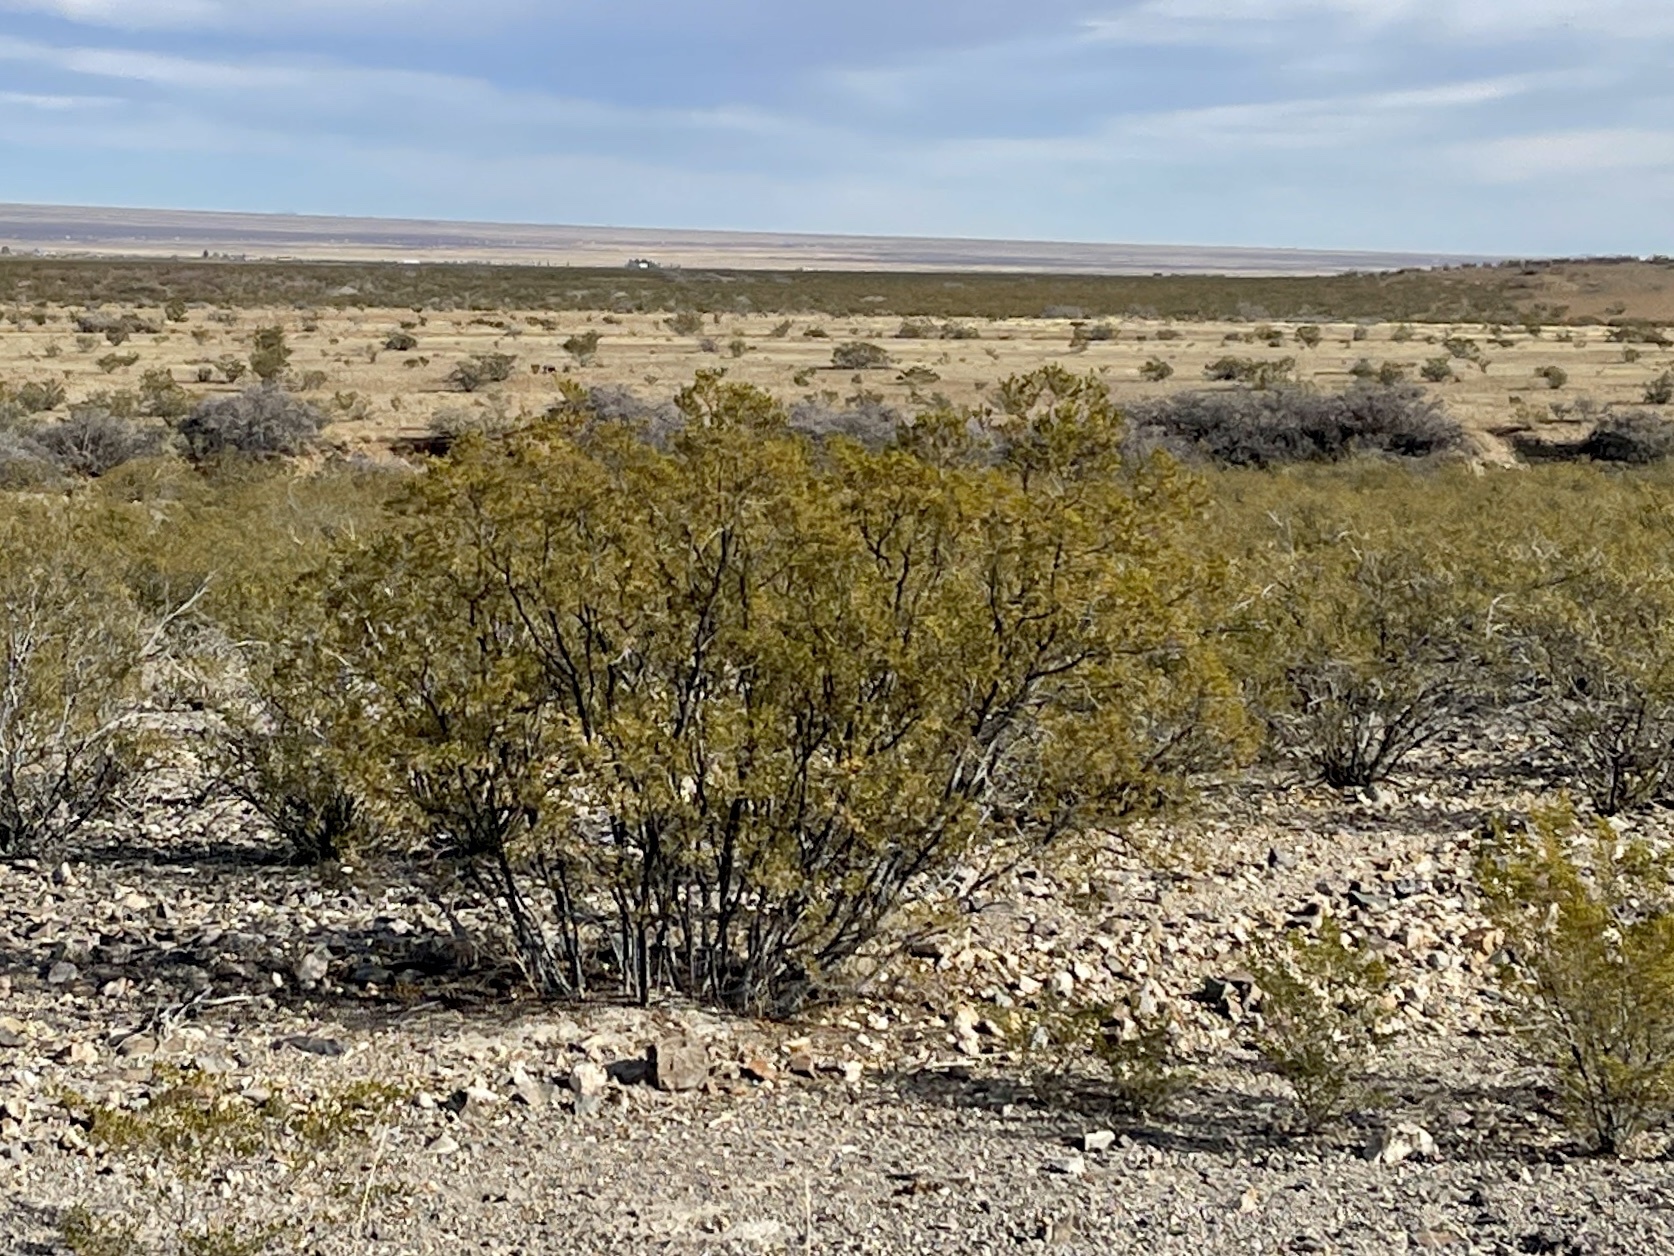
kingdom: Plantae
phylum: Tracheophyta
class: Magnoliopsida
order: Zygophyllales
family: Zygophyllaceae
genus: Larrea
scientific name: Larrea tridentata
